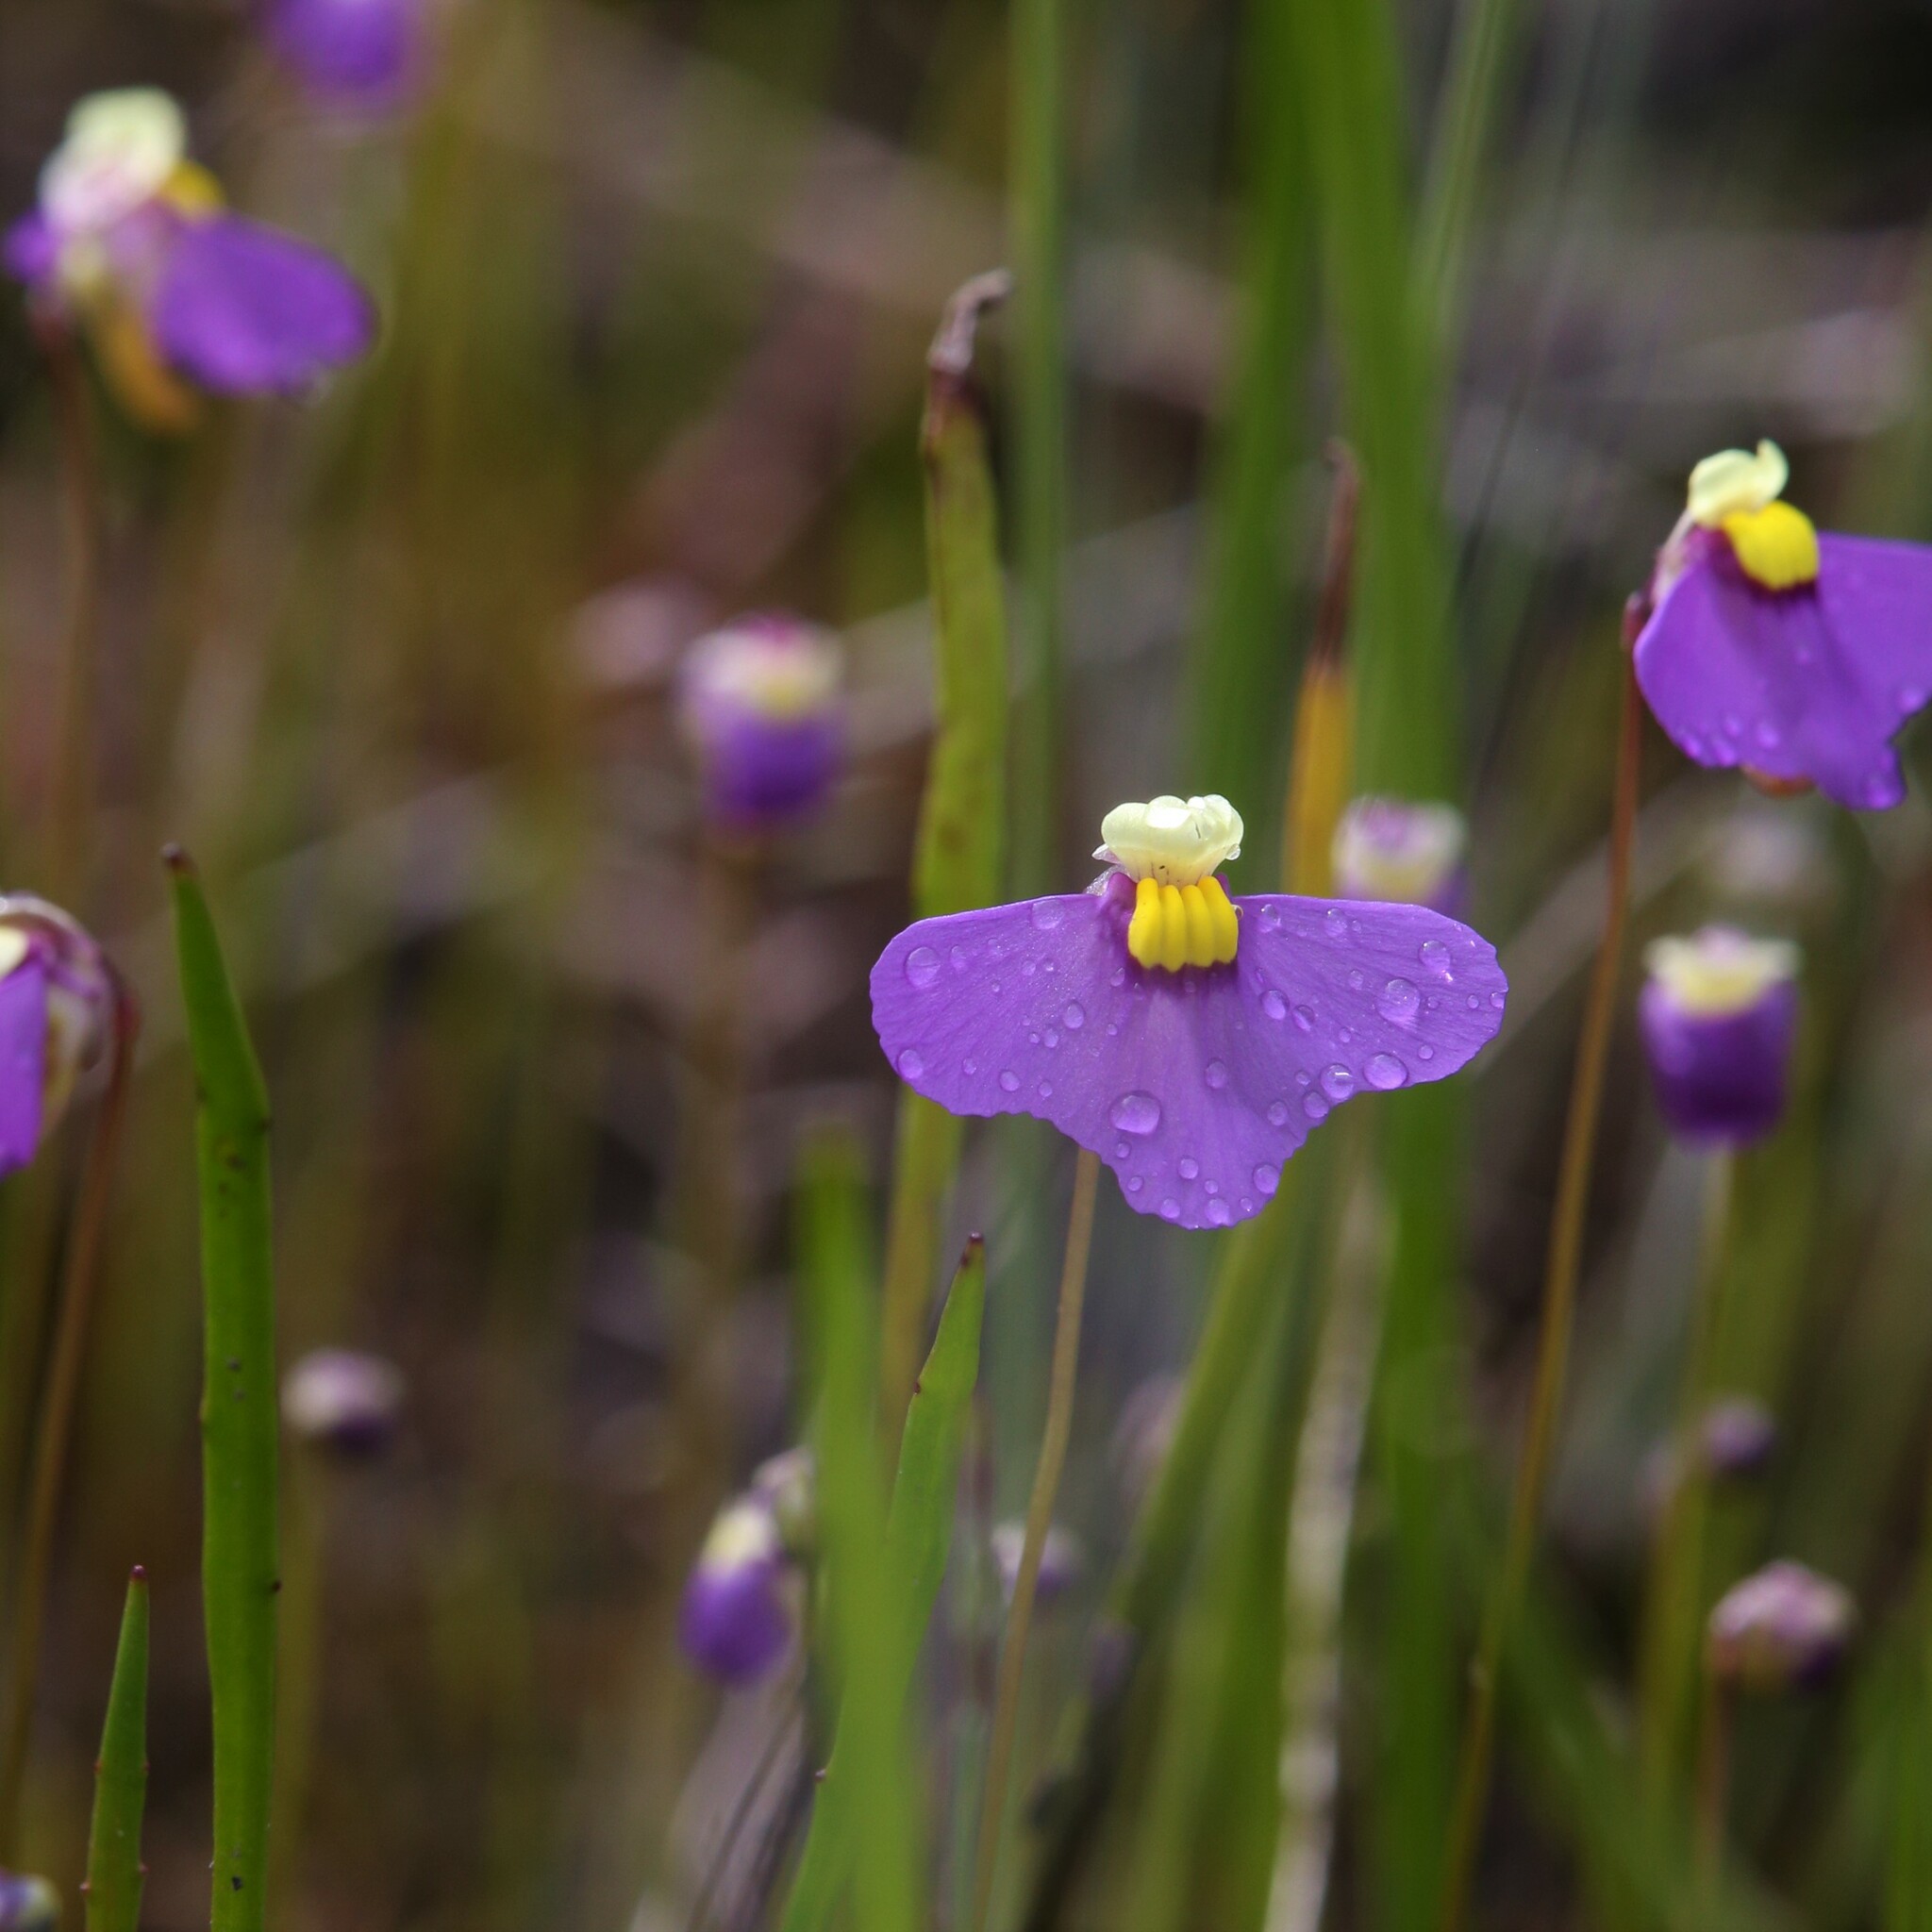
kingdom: Plantae
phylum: Tracheophyta
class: Magnoliopsida
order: Lamiales
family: Lentibulariaceae
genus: Utricularia
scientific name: Utricularia benthamii
